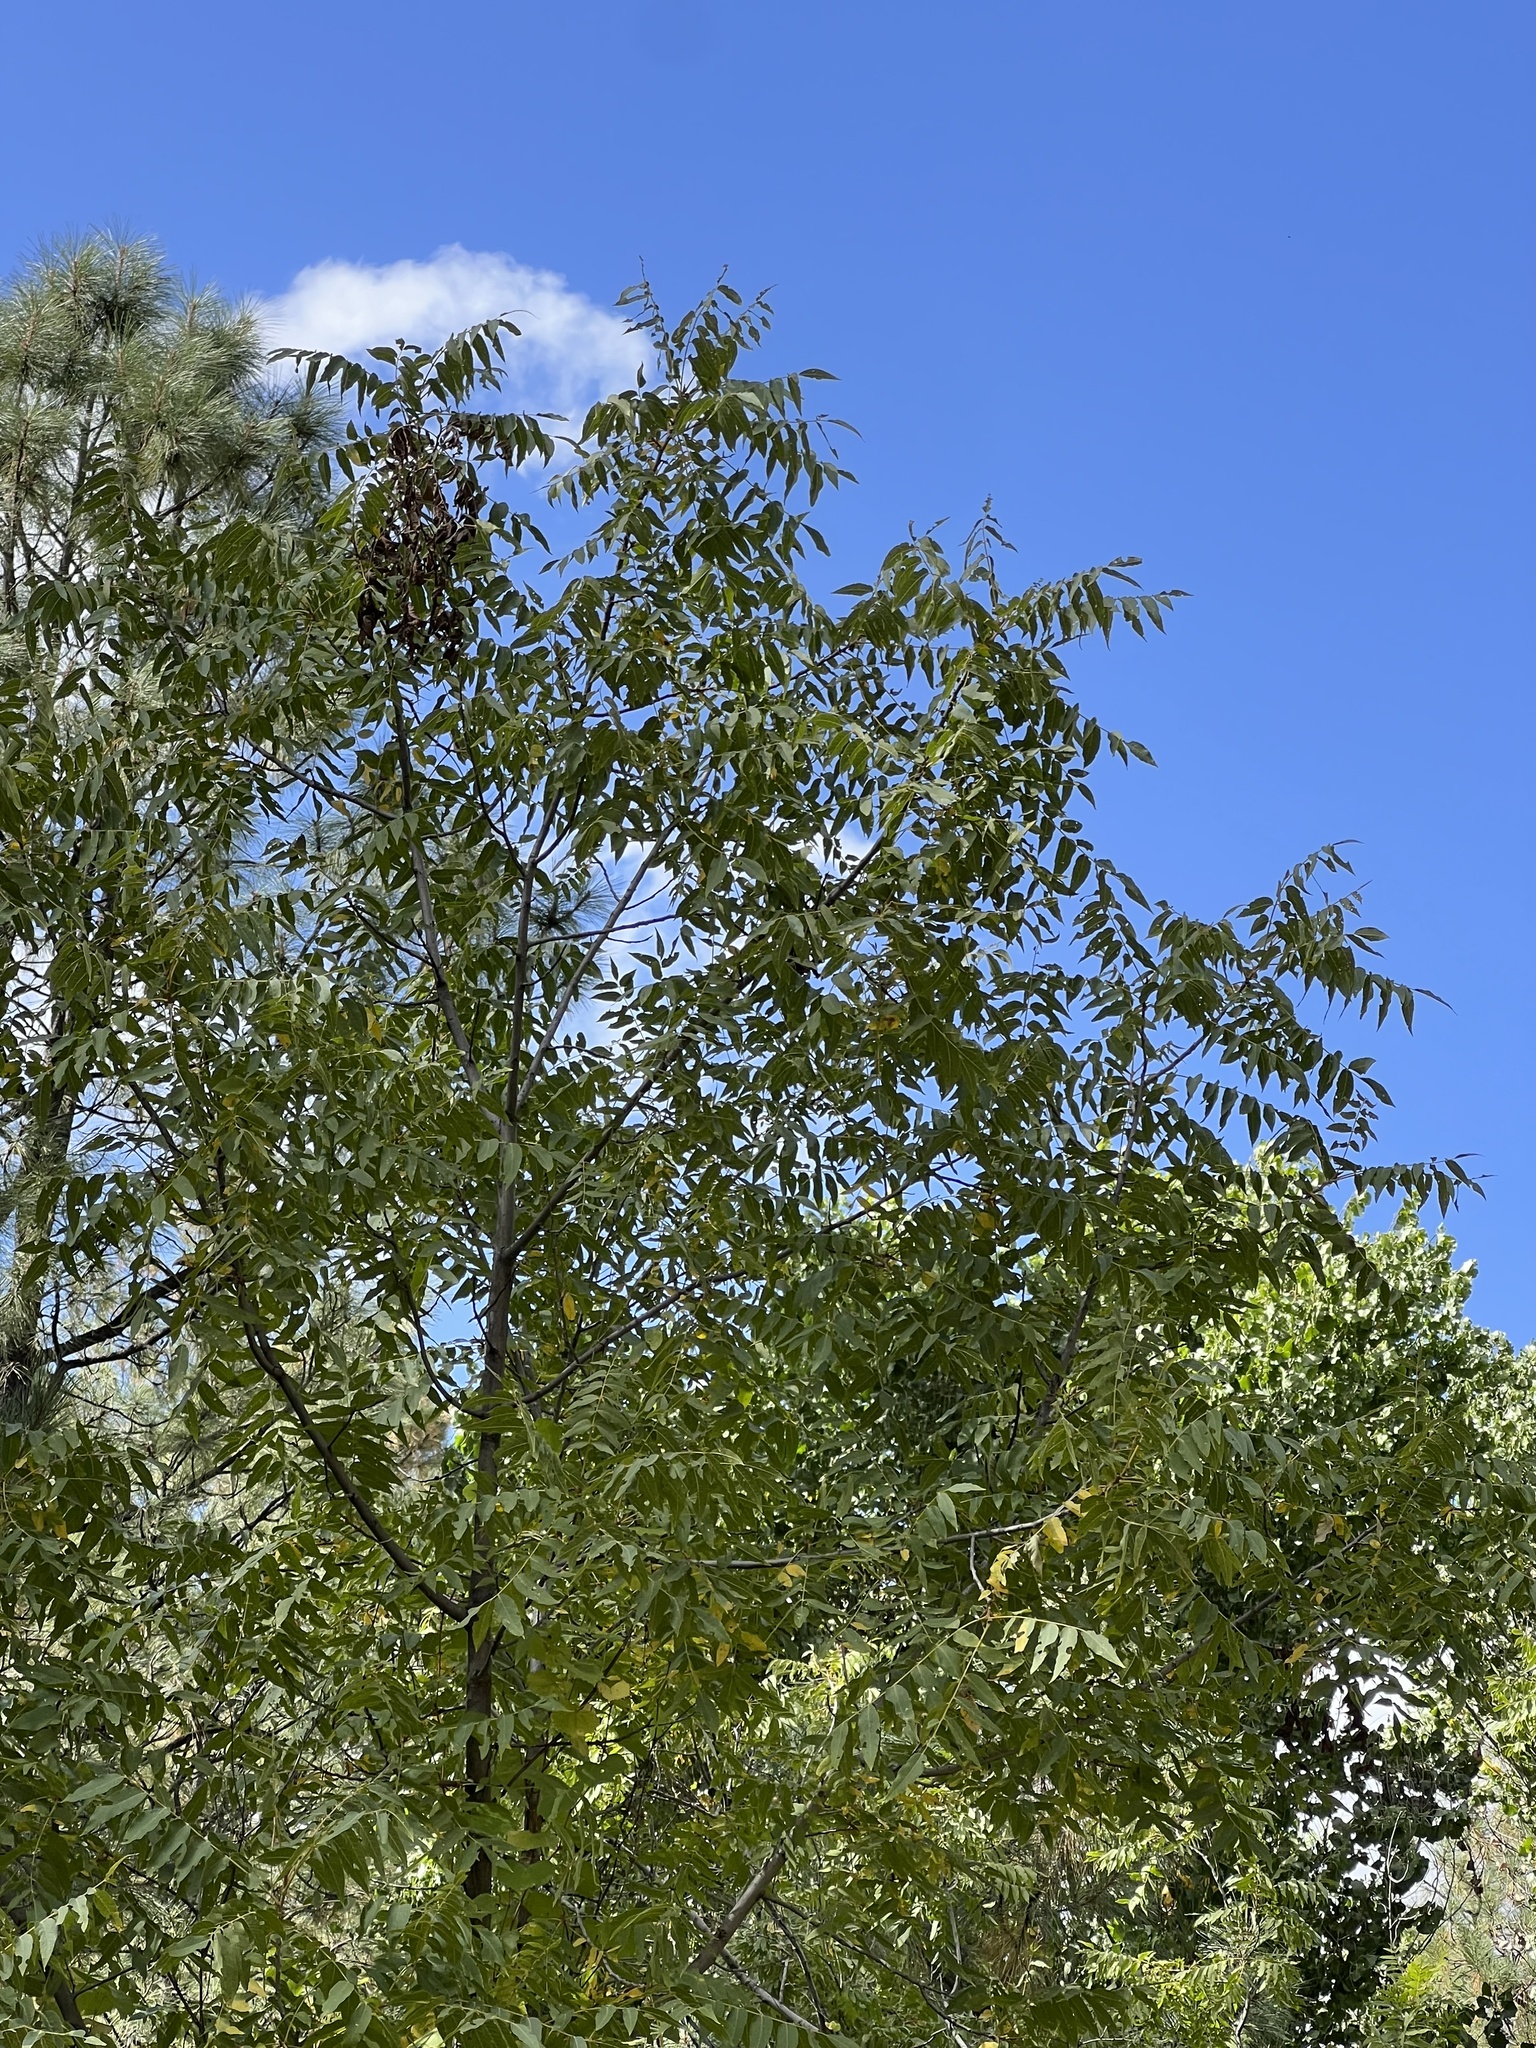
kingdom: Plantae
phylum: Tracheophyta
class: Magnoliopsida
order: Fagales
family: Juglandaceae
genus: Juglans
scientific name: Juglans major
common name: Arizona walnut
